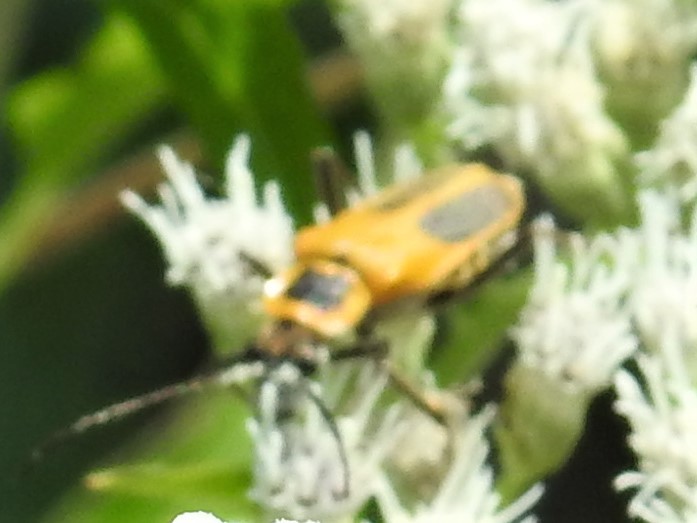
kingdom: Animalia
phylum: Arthropoda
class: Insecta
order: Coleoptera
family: Cantharidae
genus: Chauliognathus
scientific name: Chauliognathus pensylvanicus
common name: Goldenrod soldier beetle
